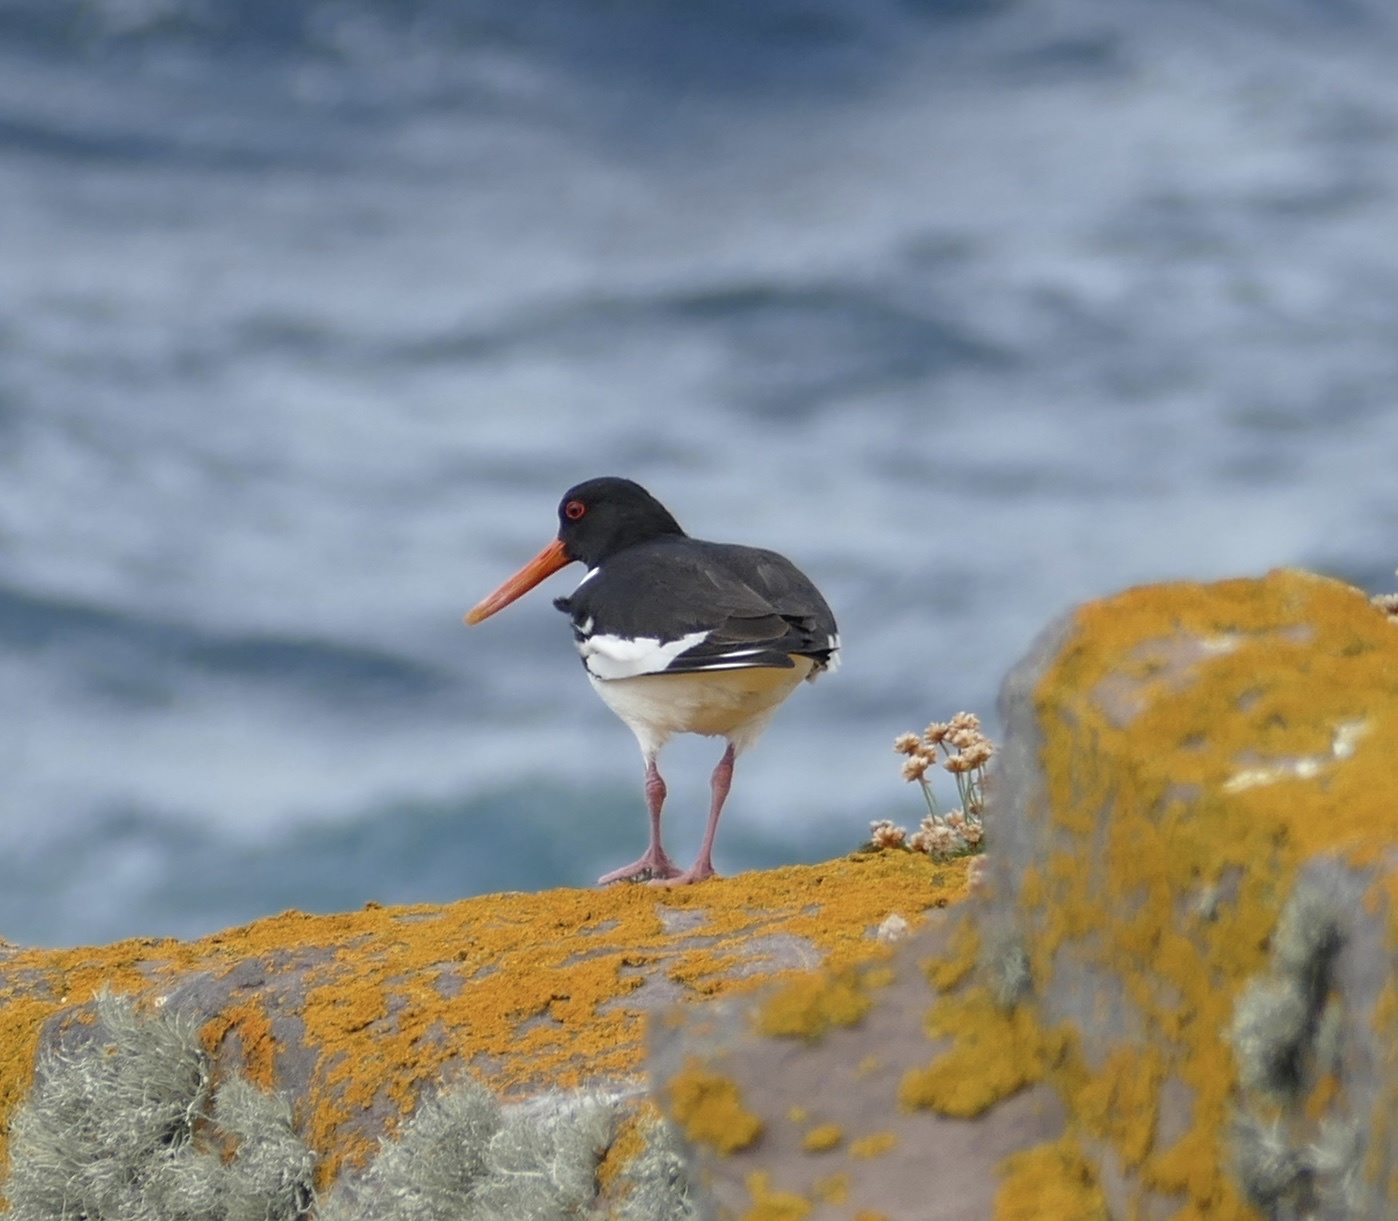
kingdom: Animalia
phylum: Chordata
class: Aves
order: Charadriiformes
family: Haematopodidae
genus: Haematopus
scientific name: Haematopus ostralegus
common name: Eurasian oystercatcher
